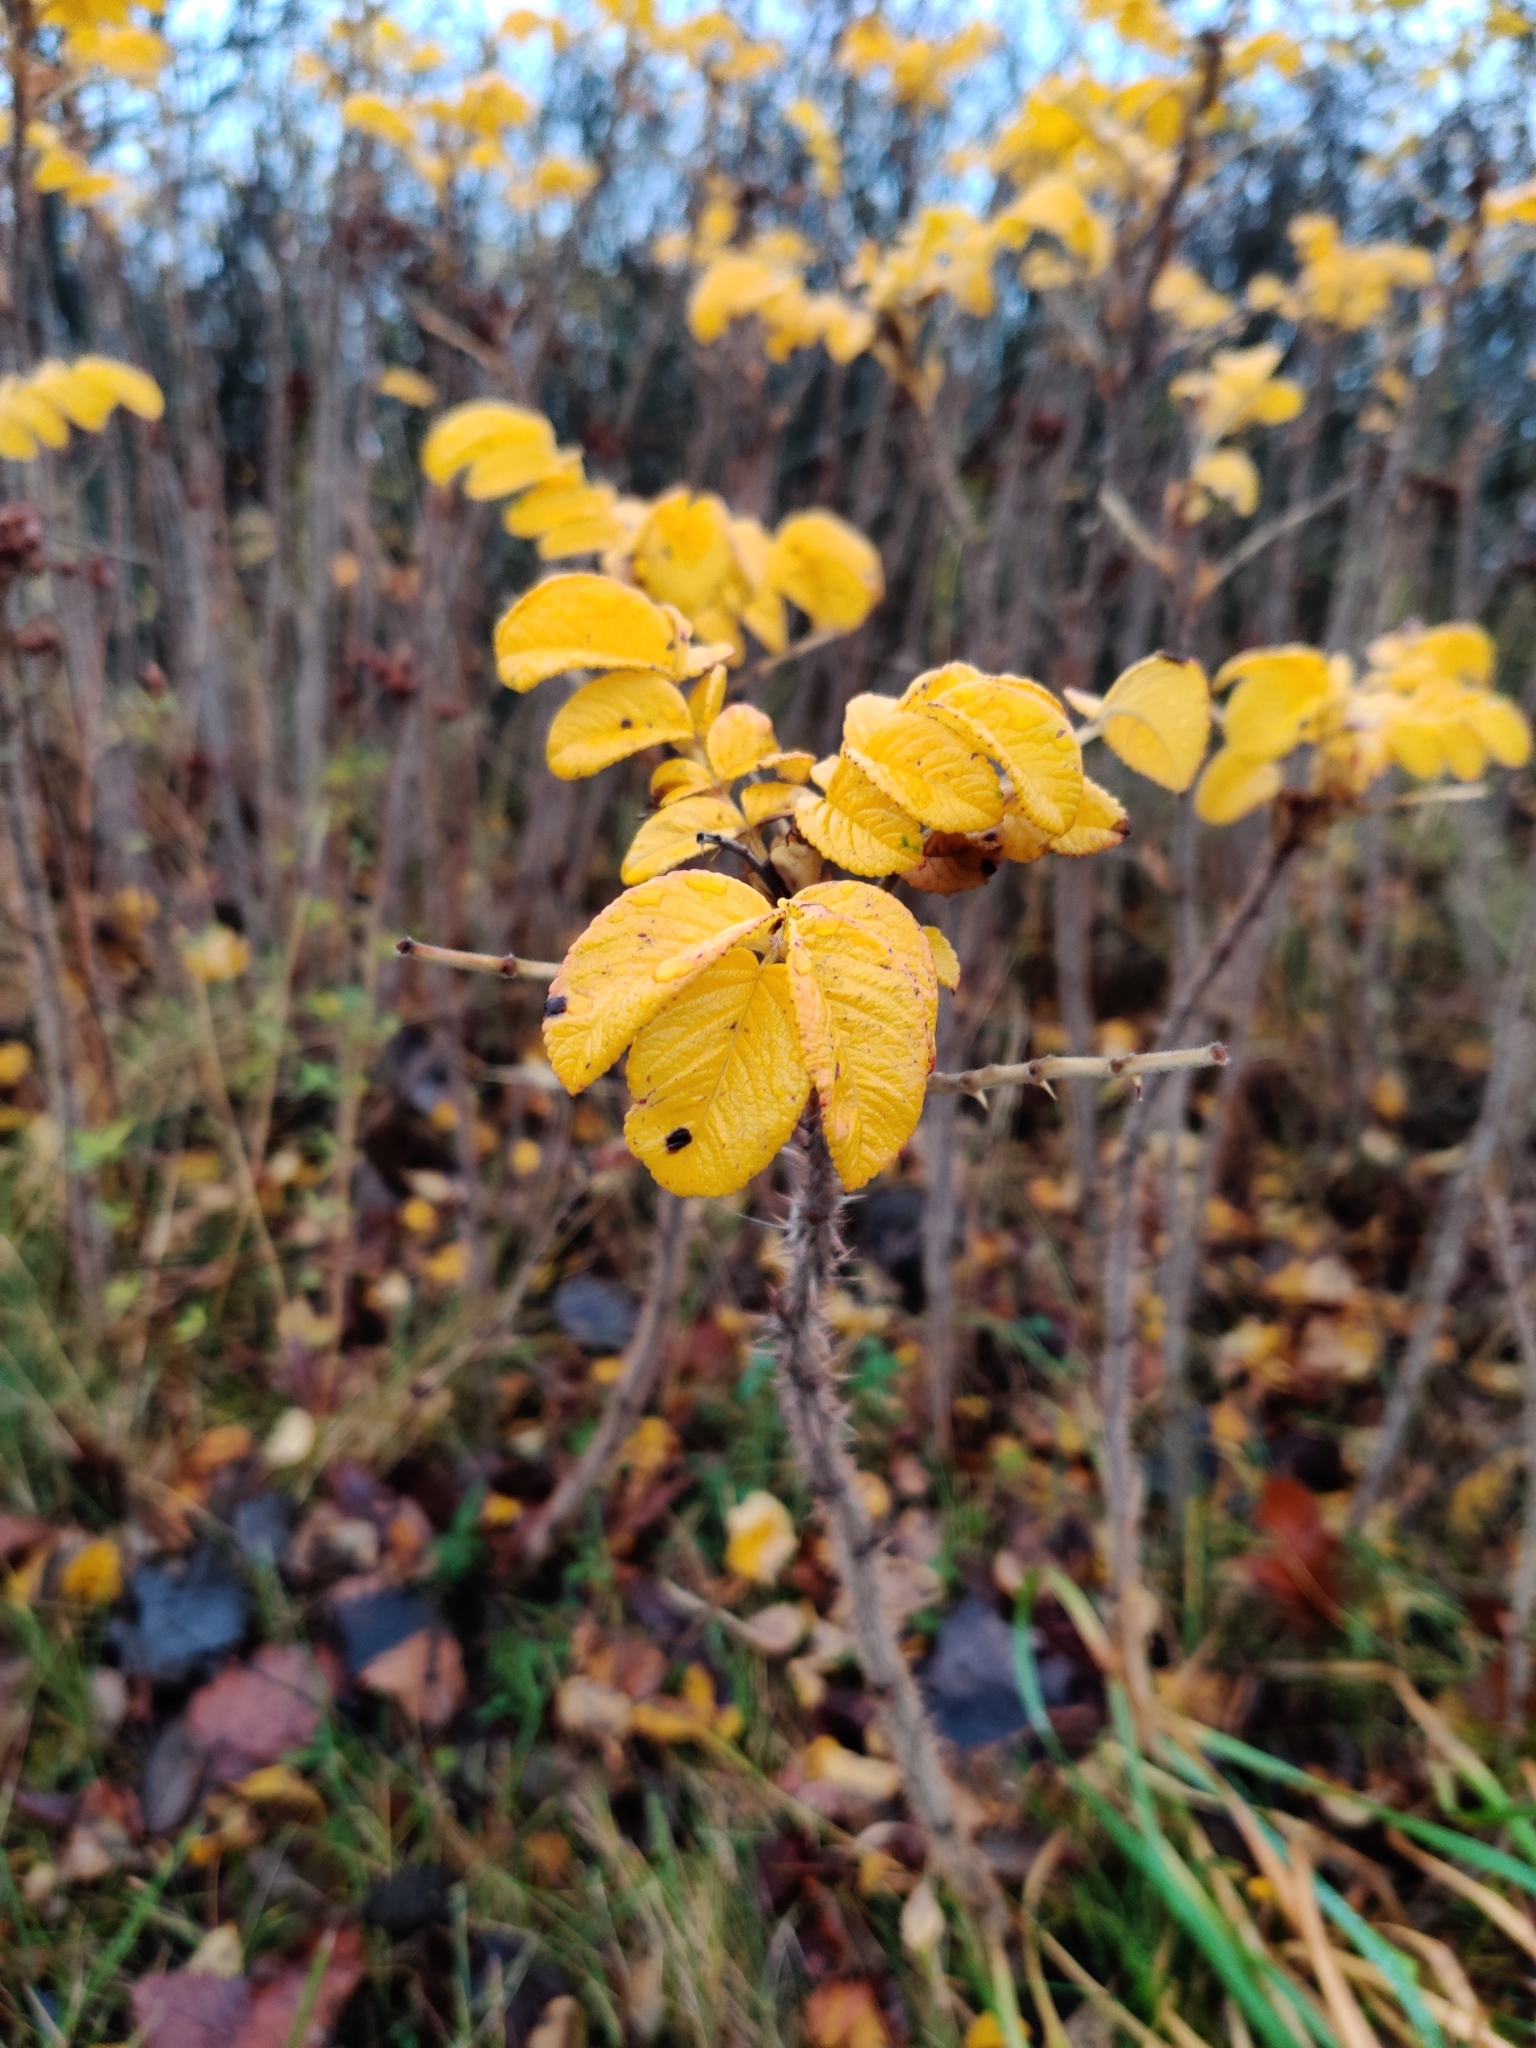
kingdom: Plantae
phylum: Tracheophyta
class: Magnoliopsida
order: Rosales
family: Rosaceae
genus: Rosa
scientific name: Rosa rugosa
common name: Japanese rose
